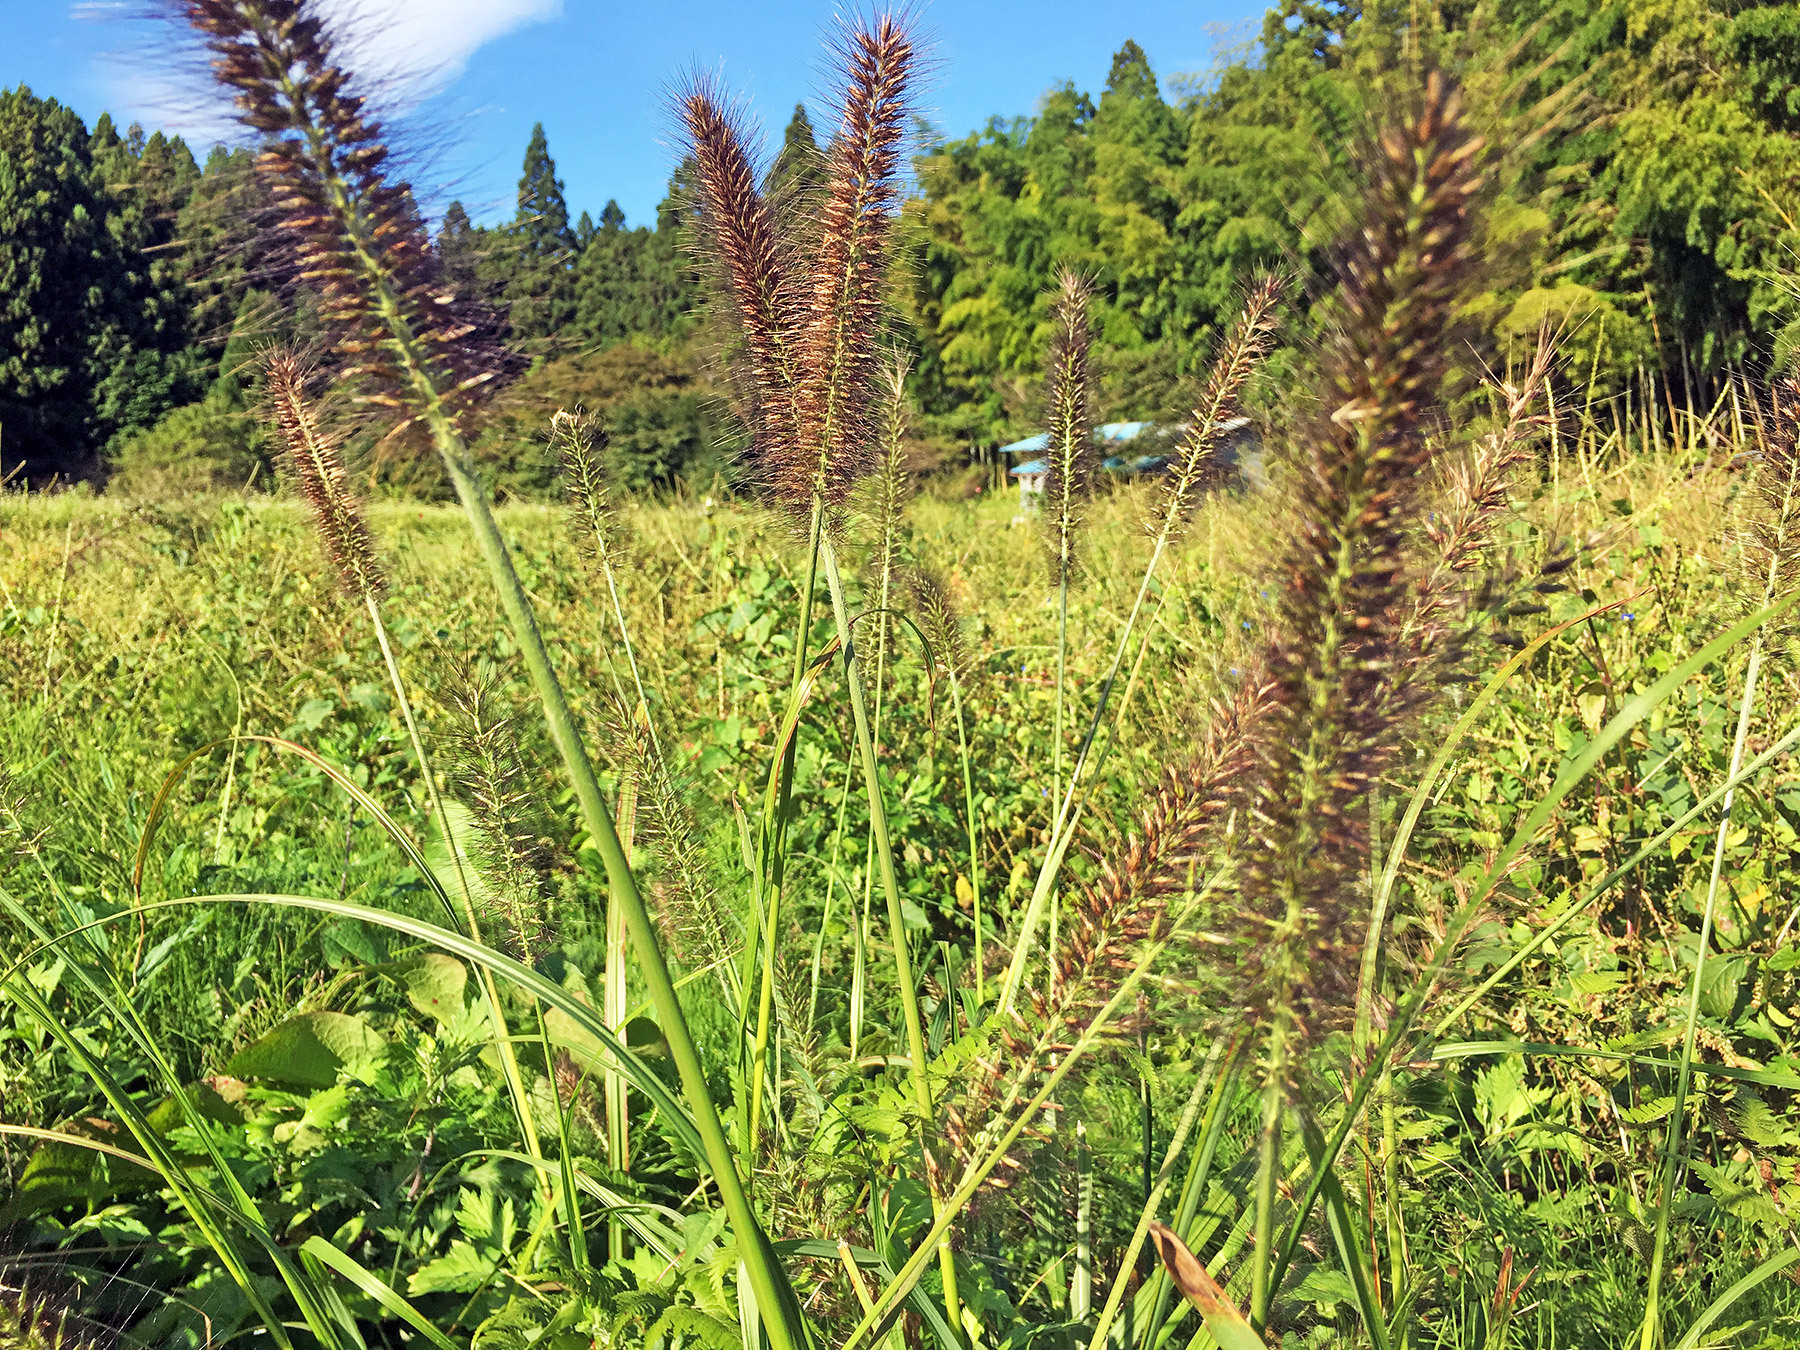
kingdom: Plantae
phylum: Tracheophyta
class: Liliopsida
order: Poales
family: Poaceae
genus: Cenchrus
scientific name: Cenchrus alopecuroides
